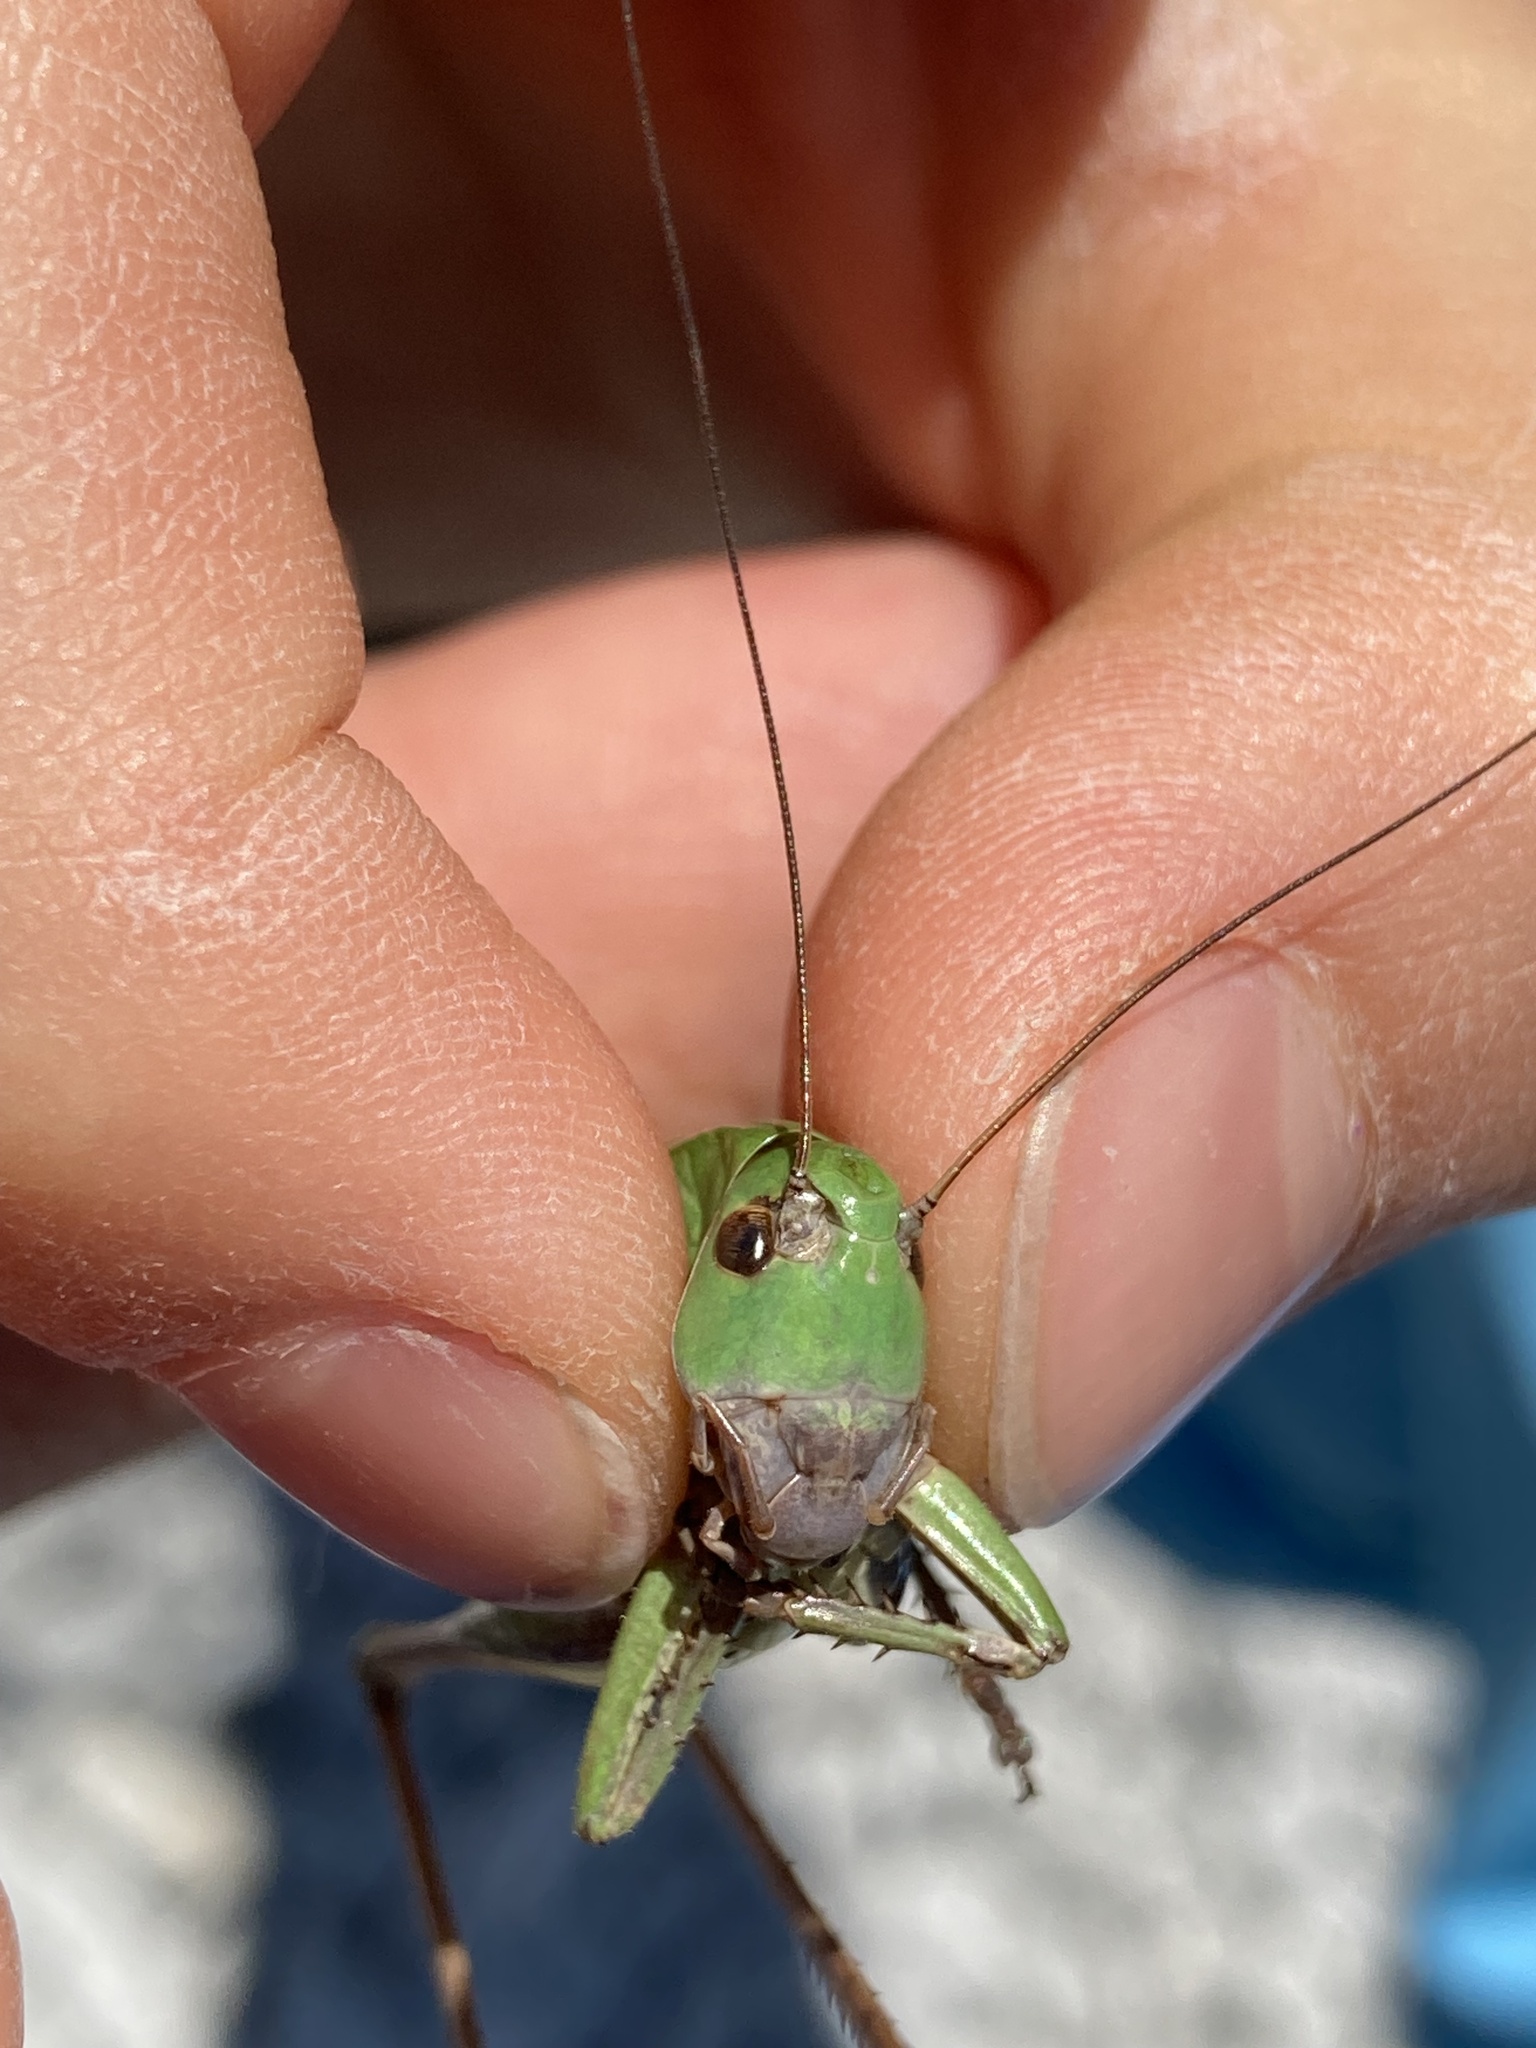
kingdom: Animalia
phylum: Arthropoda
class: Insecta
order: Orthoptera
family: Tettigoniidae
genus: Decticus
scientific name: Decticus verrucivorus
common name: Wart-biter
